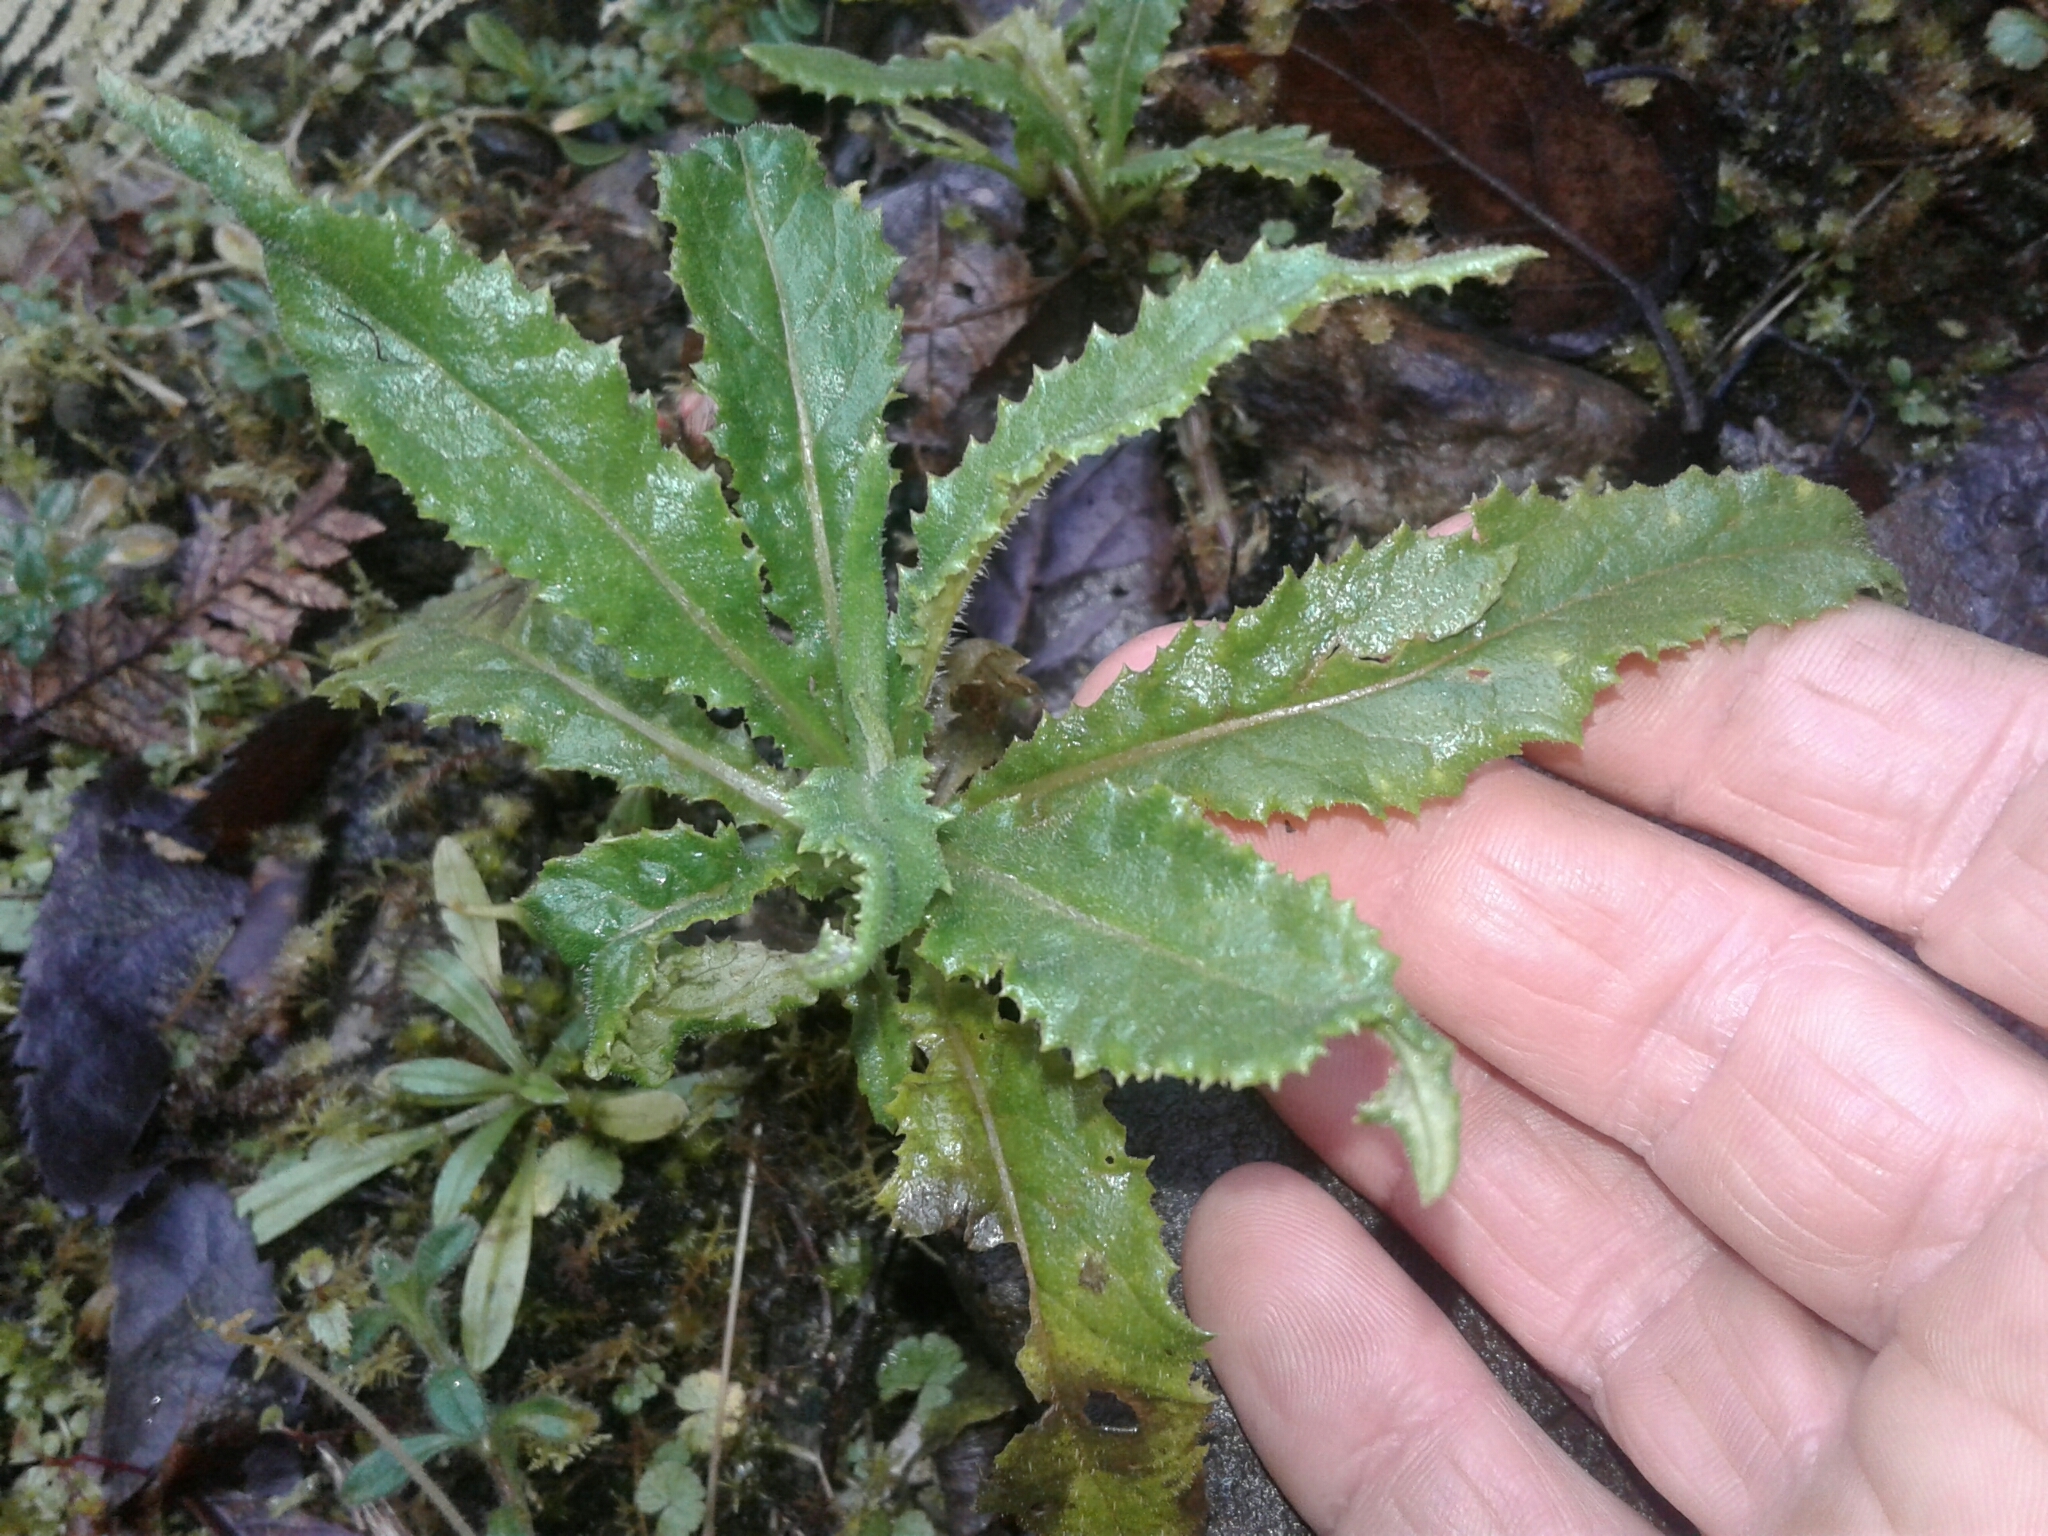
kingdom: Plantae
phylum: Tracheophyta
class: Magnoliopsida
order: Asterales
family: Asteraceae
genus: Senecio
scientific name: Senecio minimus
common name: Toothed fireweed
